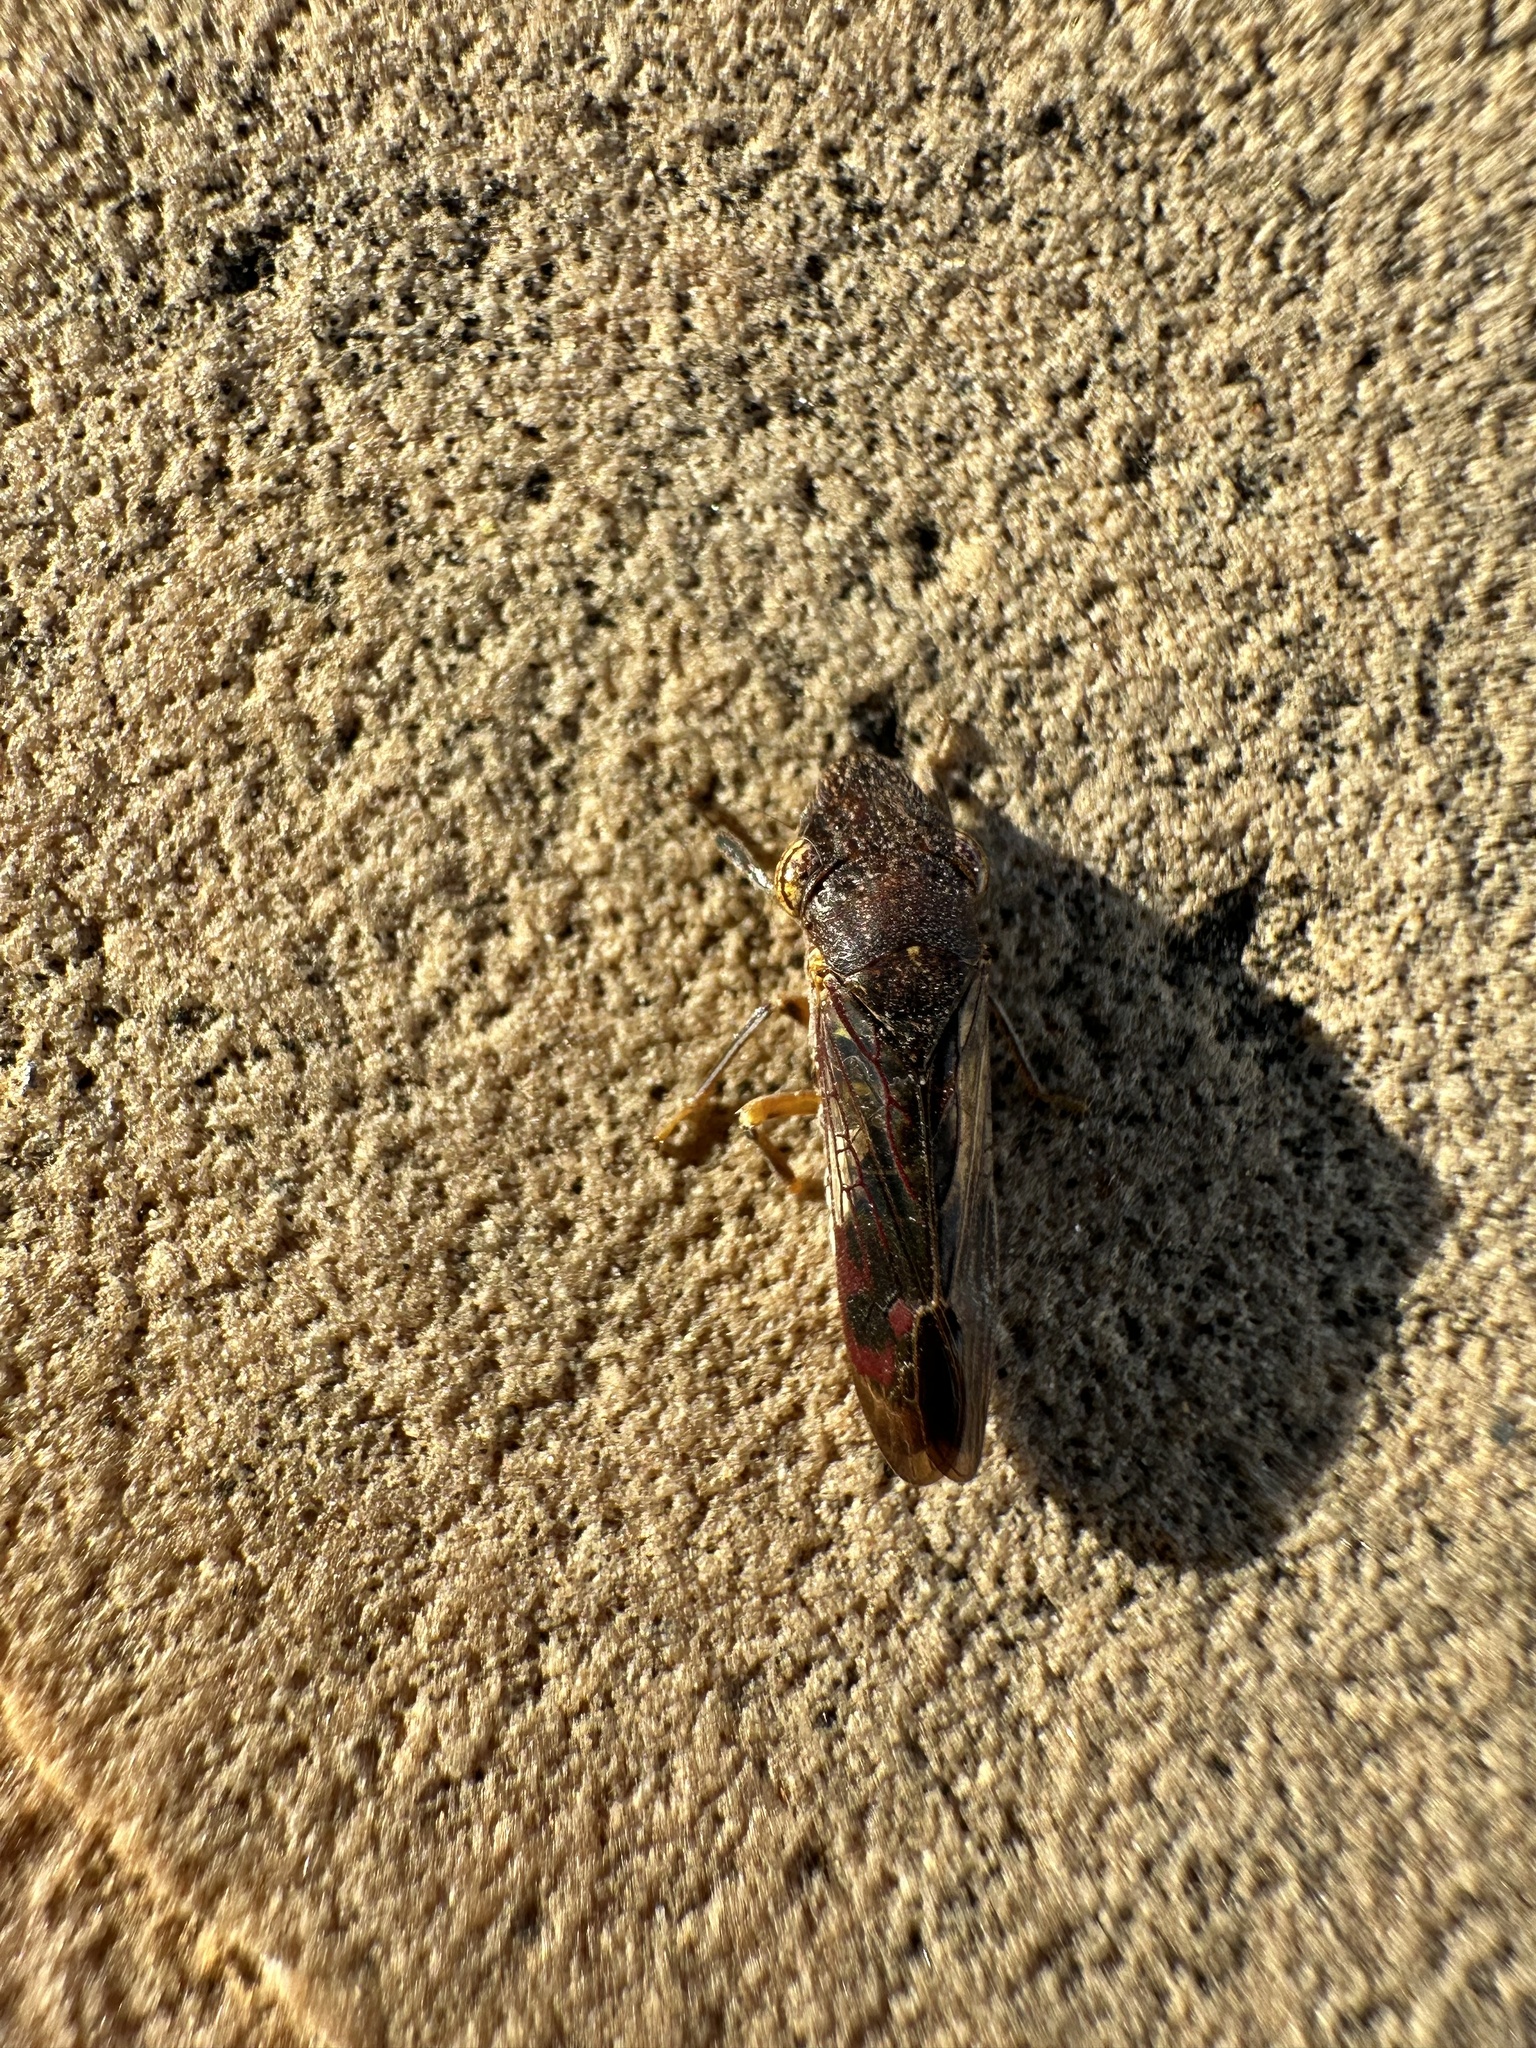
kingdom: Animalia
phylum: Arthropoda
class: Insecta
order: Hemiptera
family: Cicadellidae
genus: Homalodisca
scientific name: Homalodisca vitripennis
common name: Glassy-winged sharpshooter
